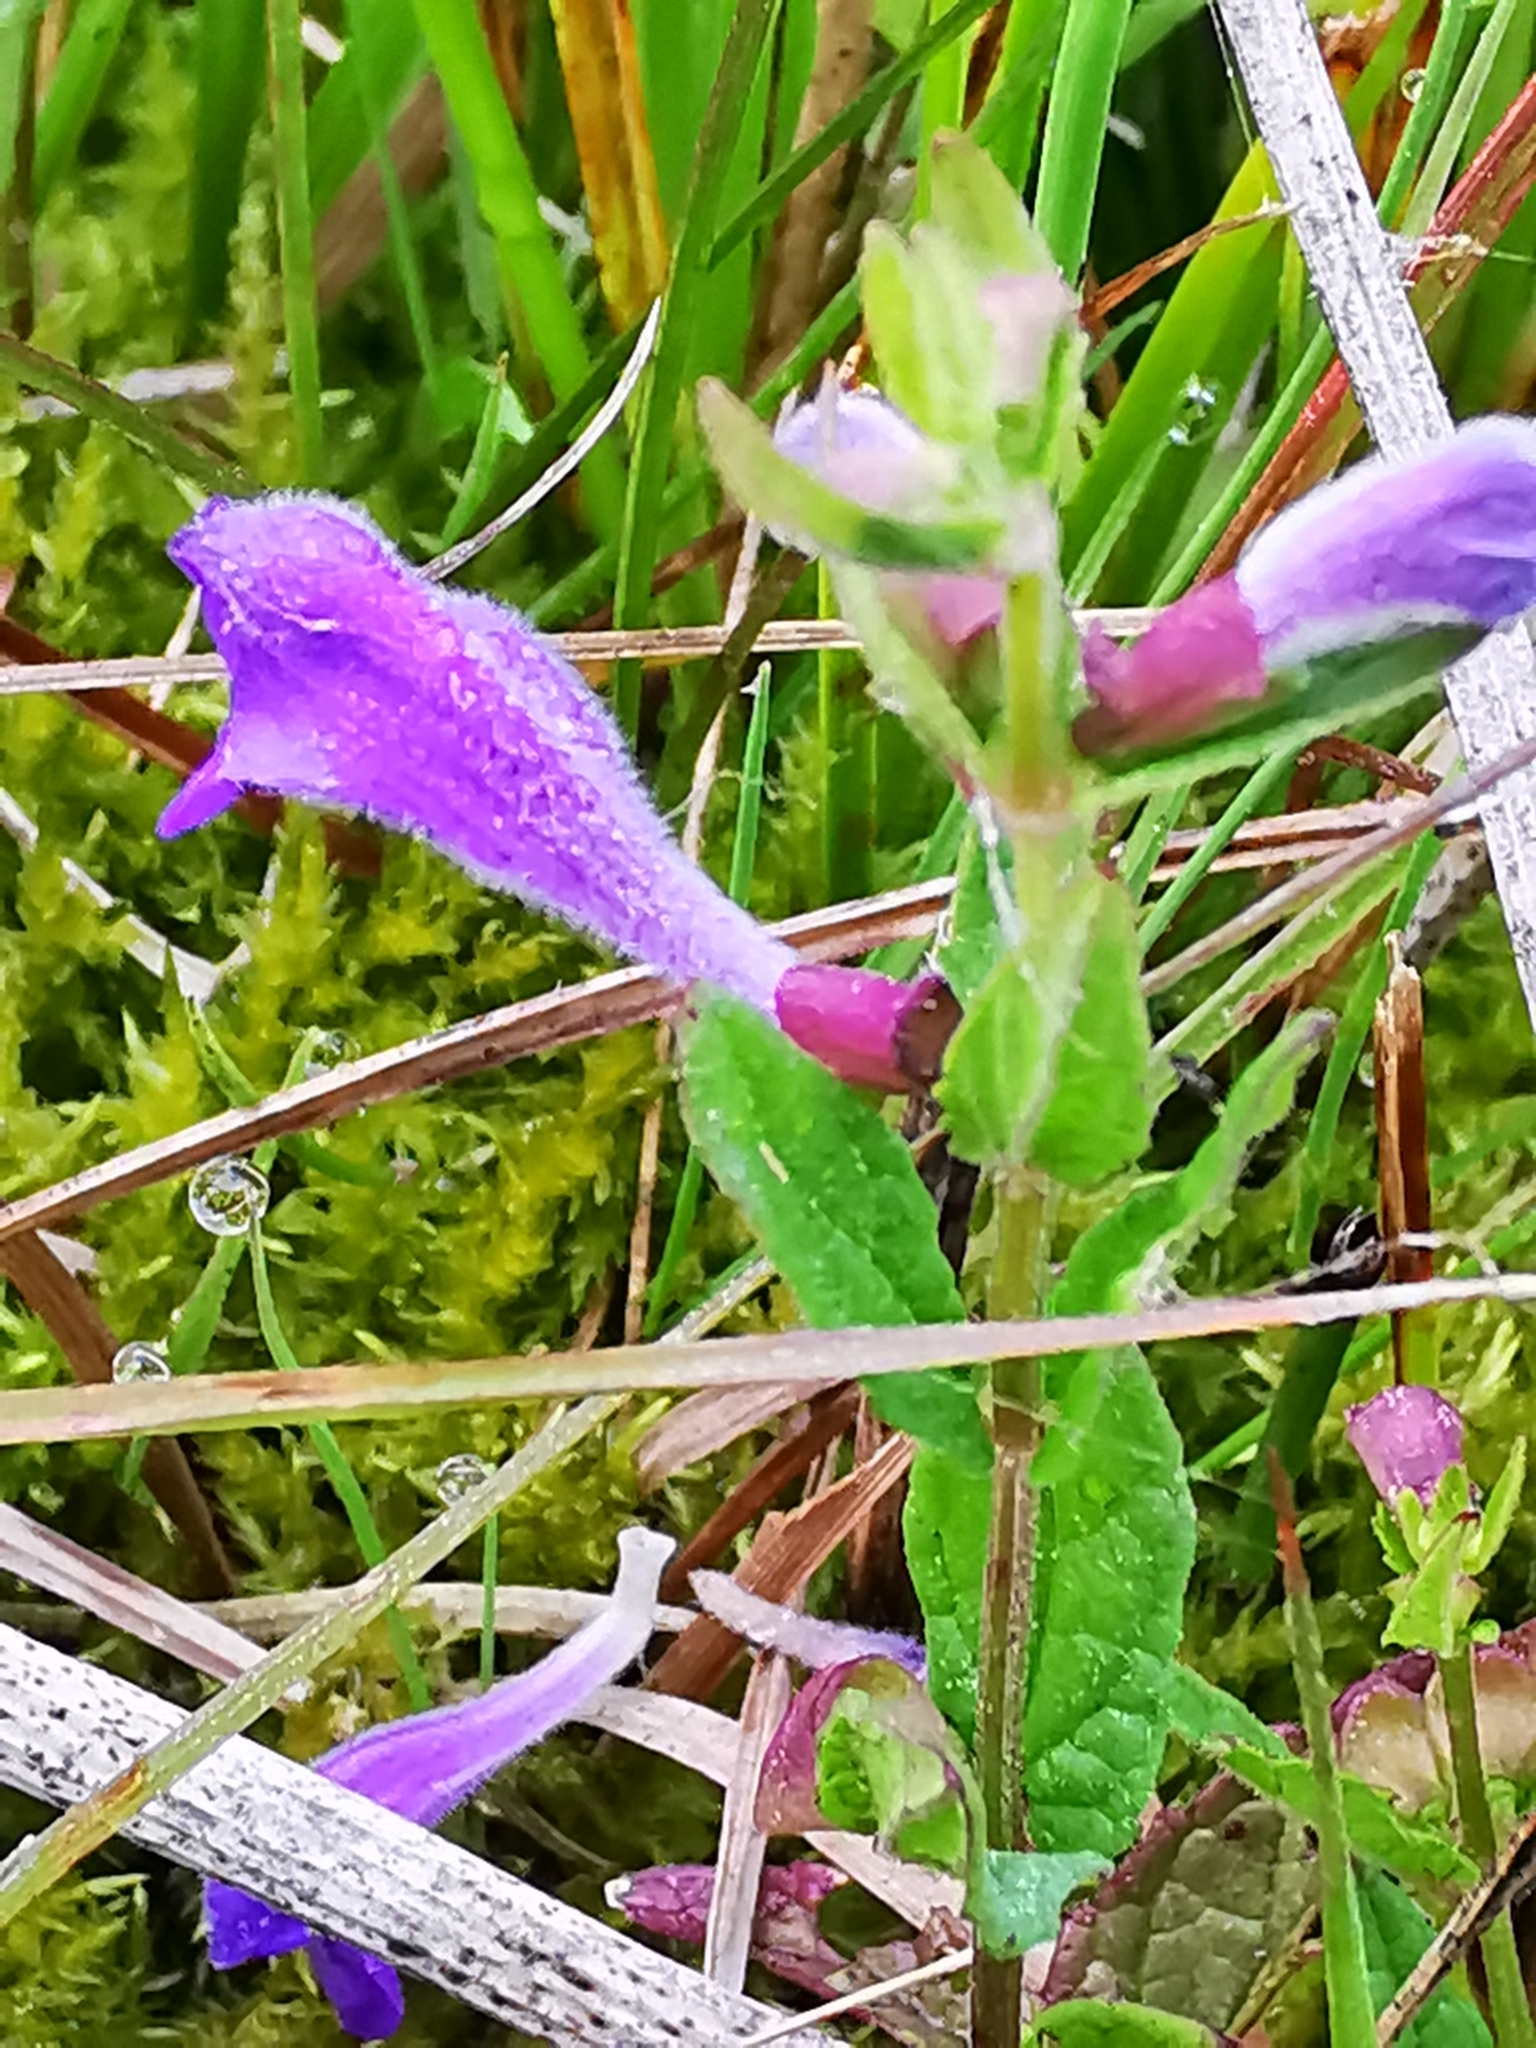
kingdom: Plantae
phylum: Tracheophyta
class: Magnoliopsida
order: Lamiales
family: Lamiaceae
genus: Scutellaria
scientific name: Scutellaria galericulata
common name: Skullcap
